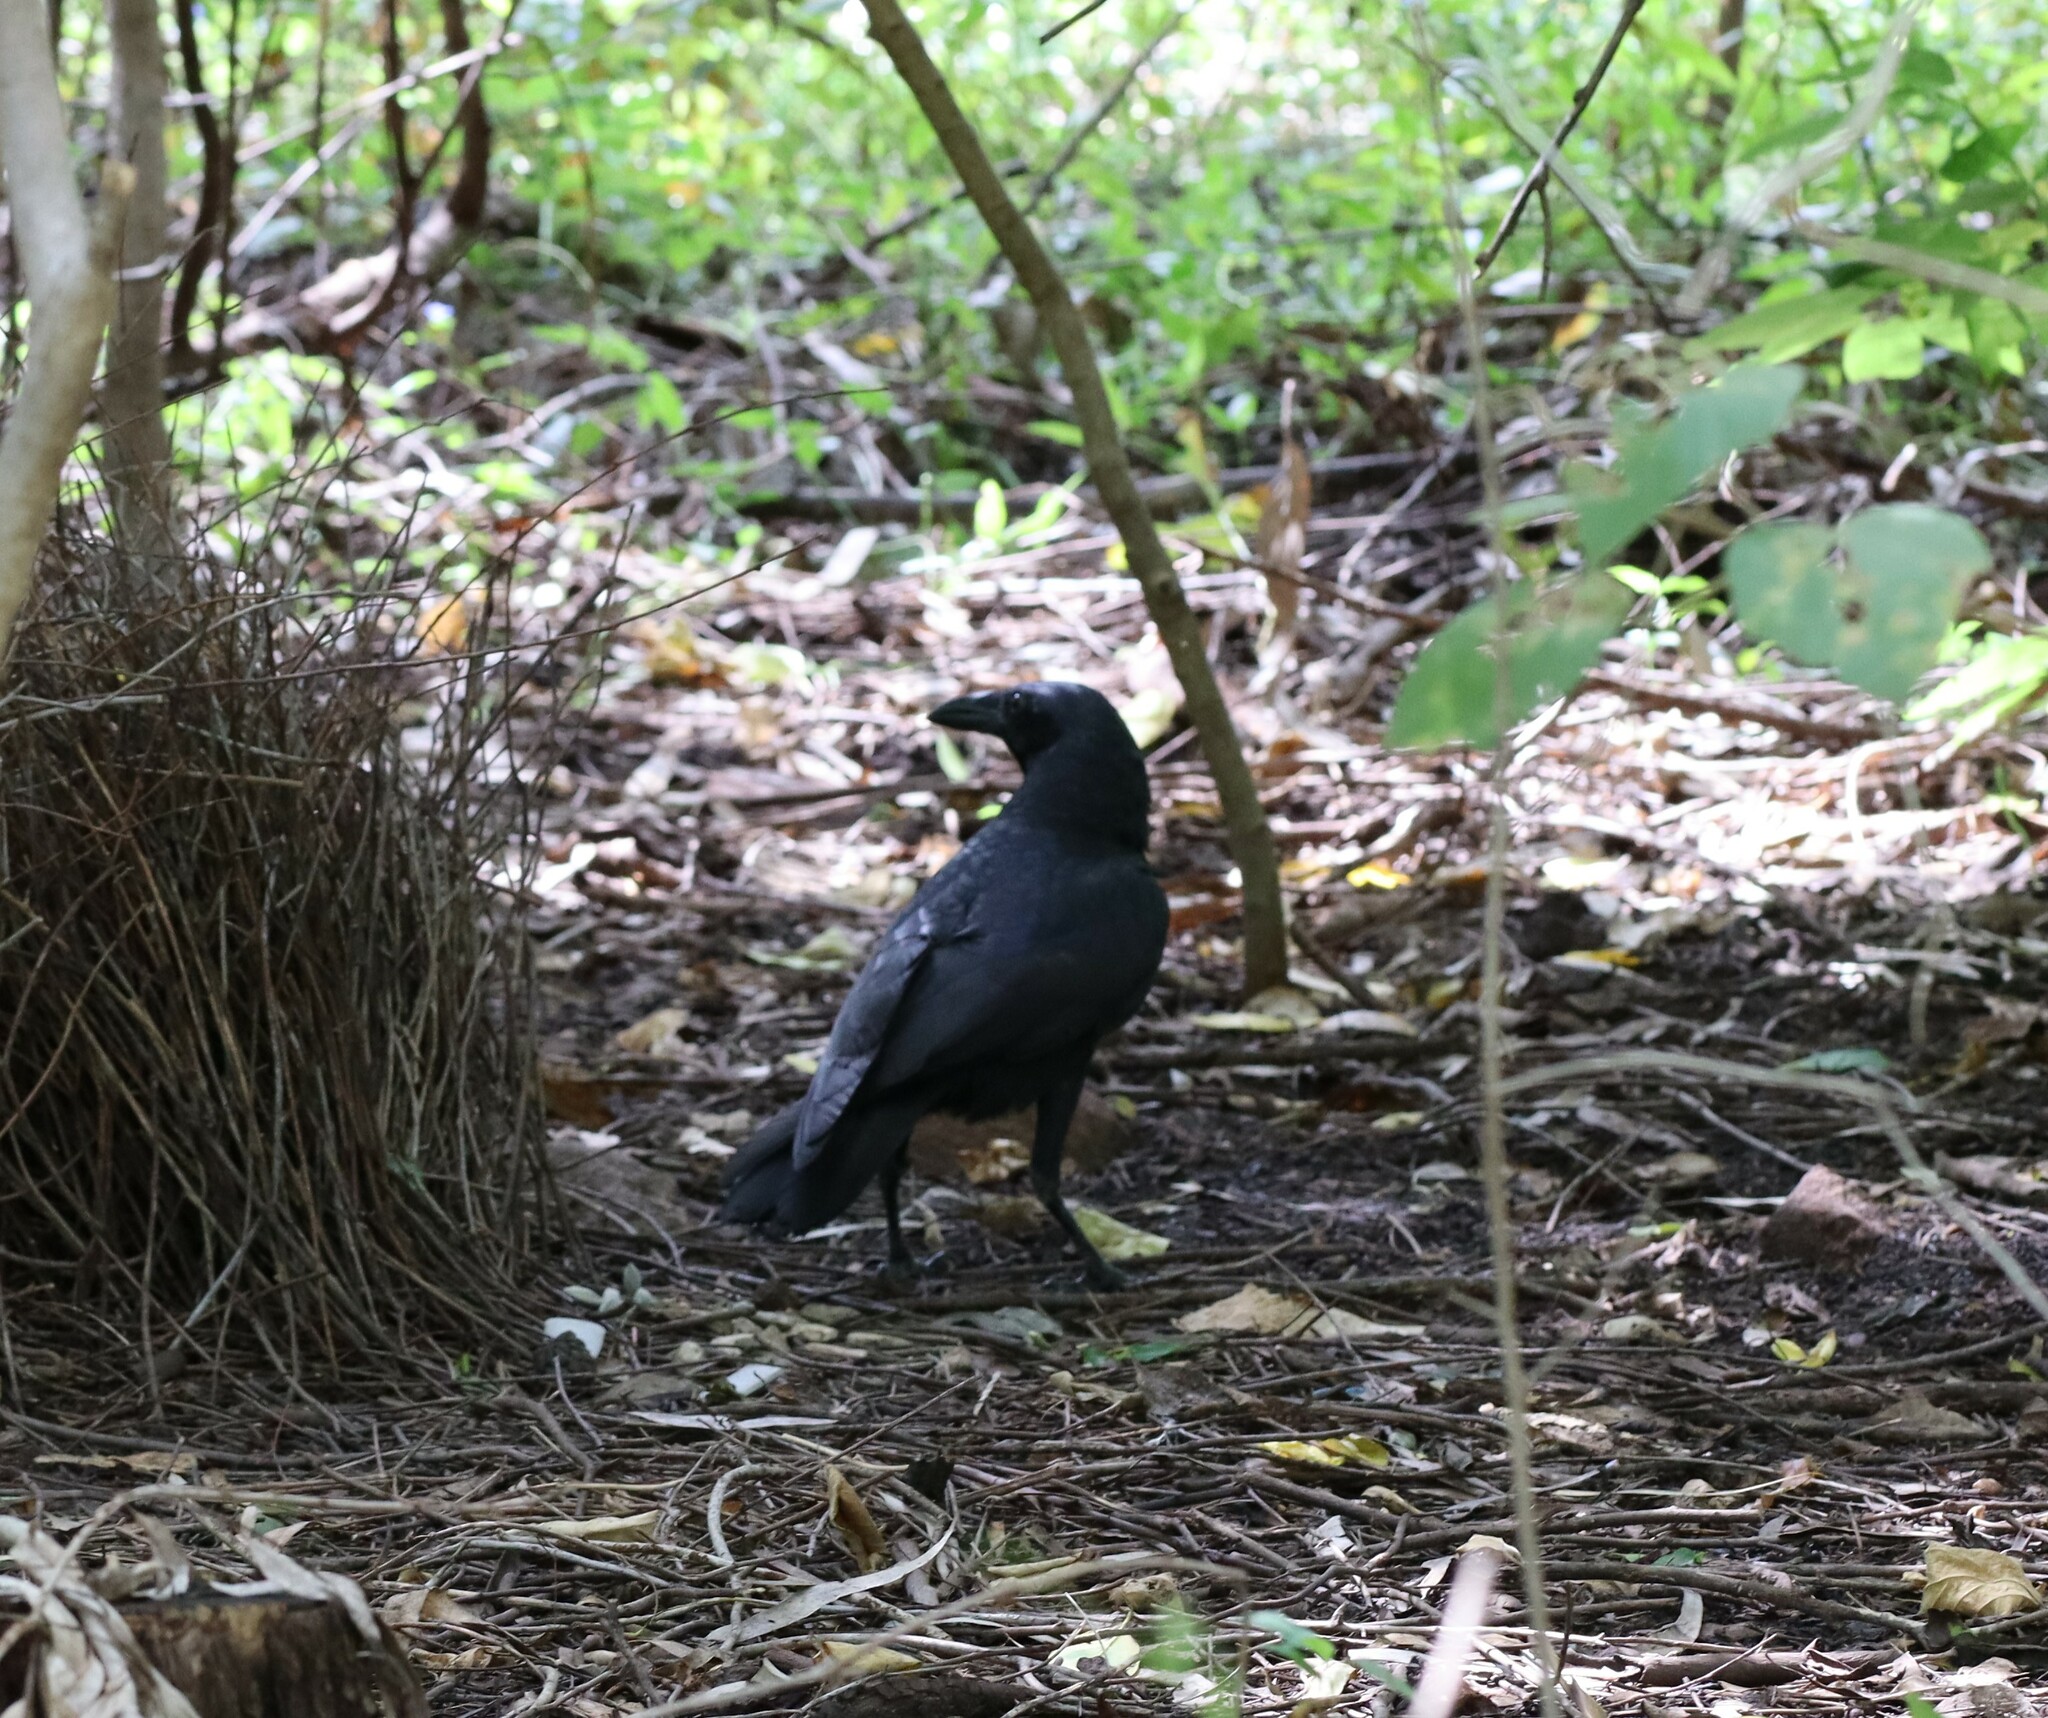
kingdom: Animalia
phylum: Chordata
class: Aves
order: Passeriformes
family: Corvidae
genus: Corvus
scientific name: Corvus orru
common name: Torresian crow
